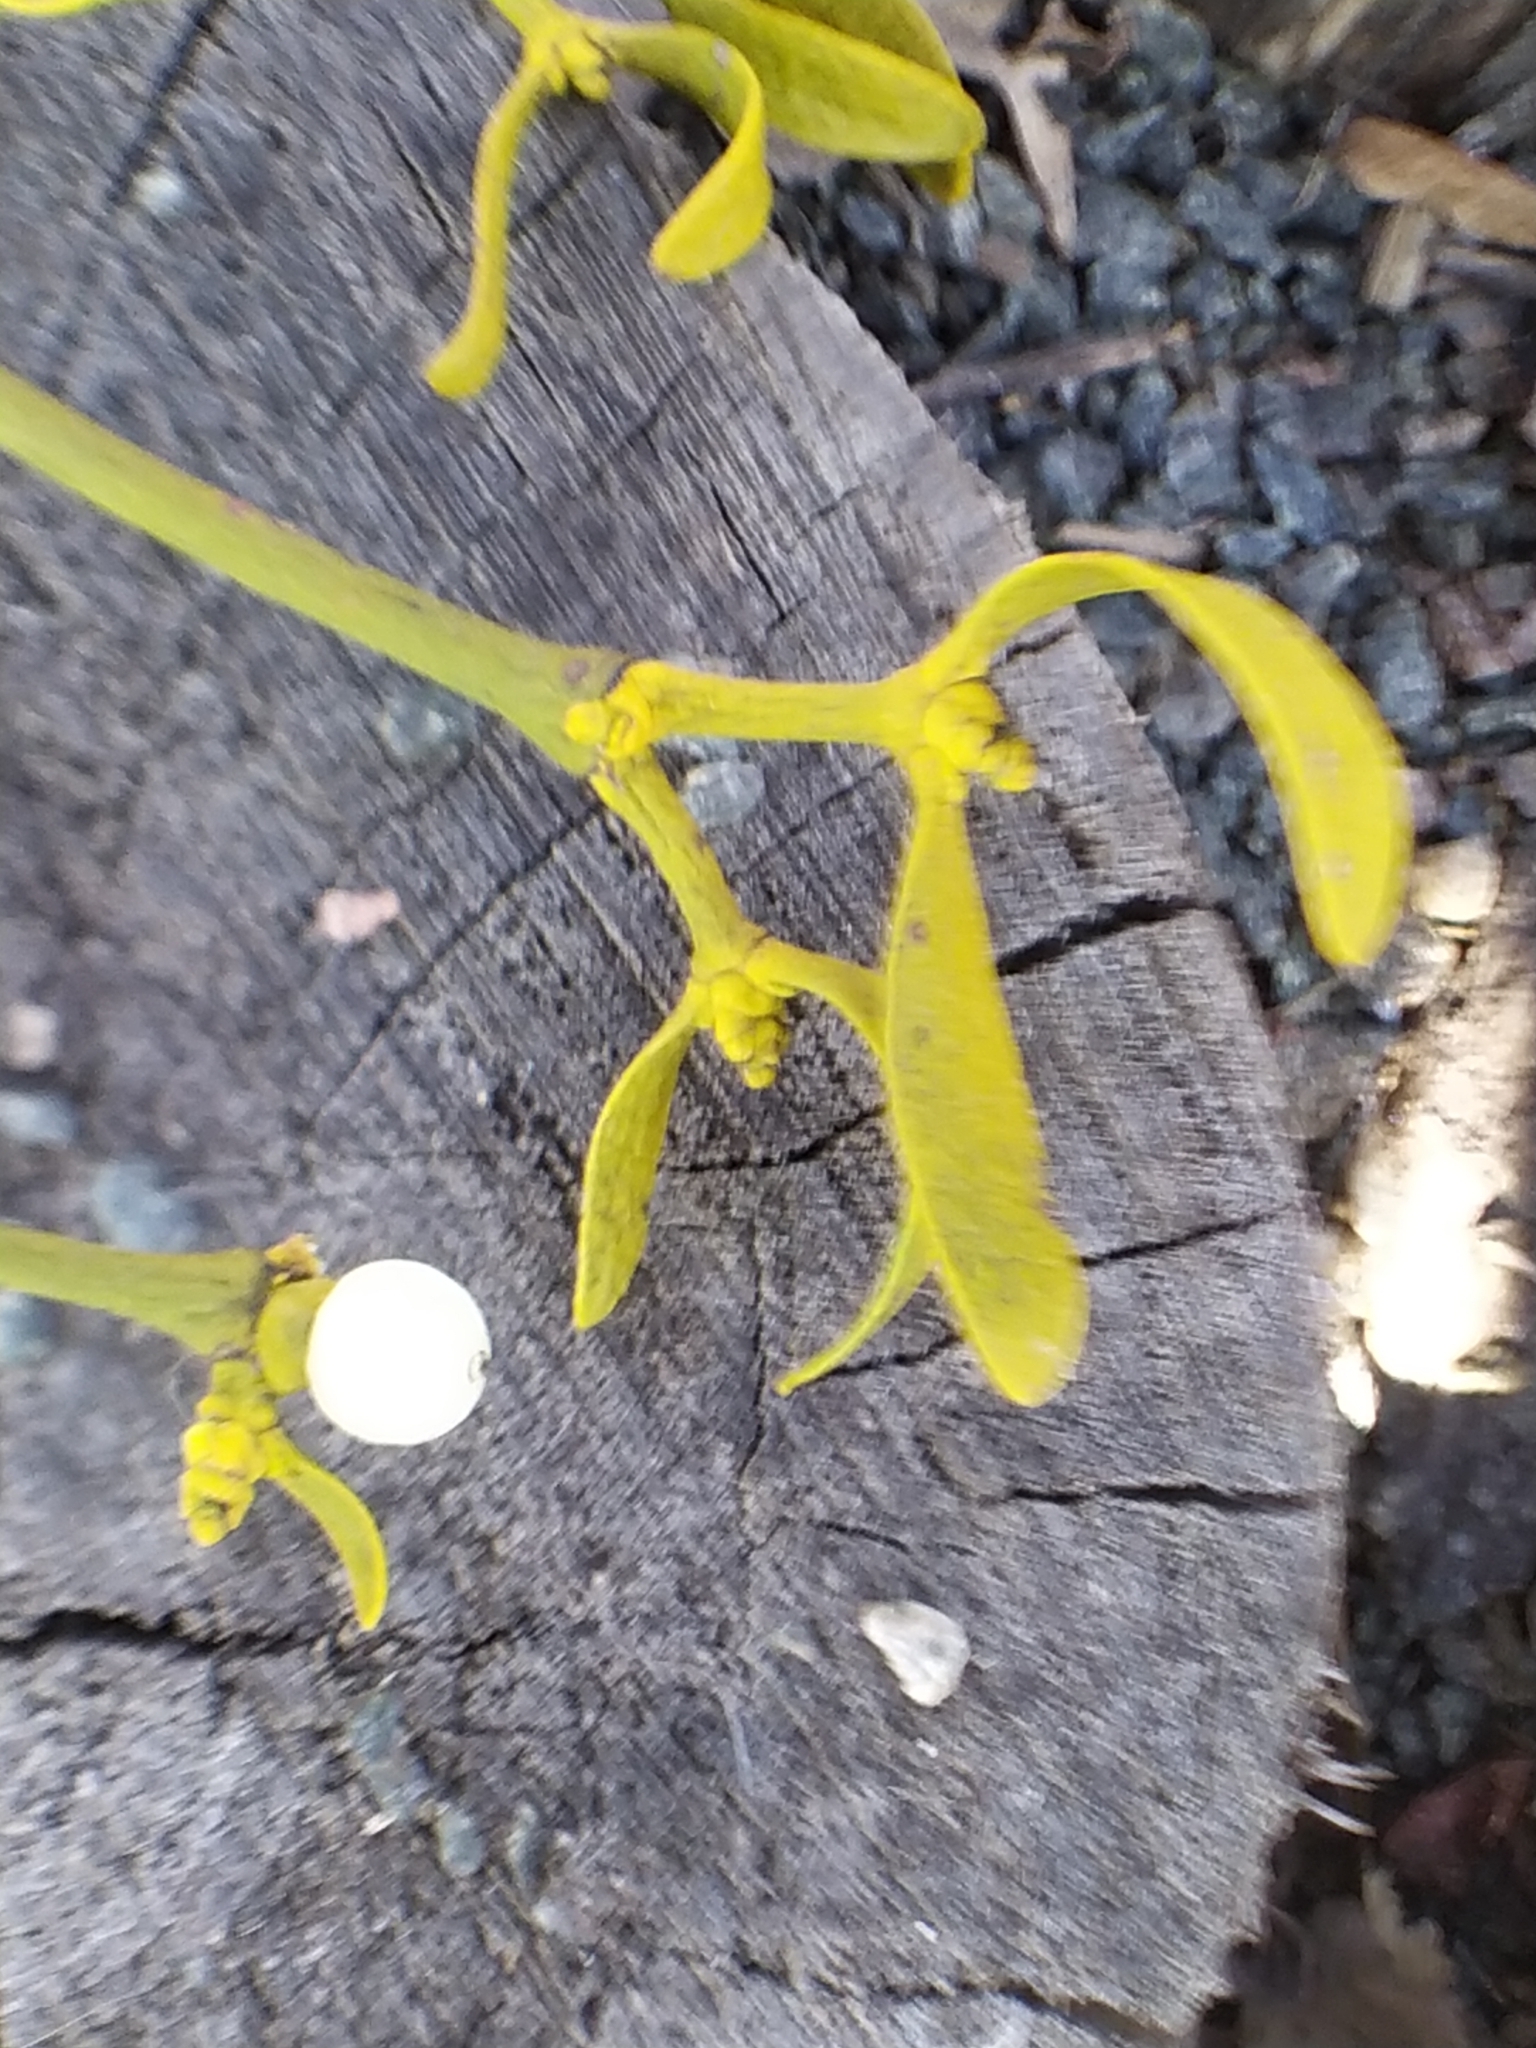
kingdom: Plantae
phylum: Tracheophyta
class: Magnoliopsida
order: Santalales
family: Viscaceae
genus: Viscum
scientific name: Viscum album
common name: Mistletoe
